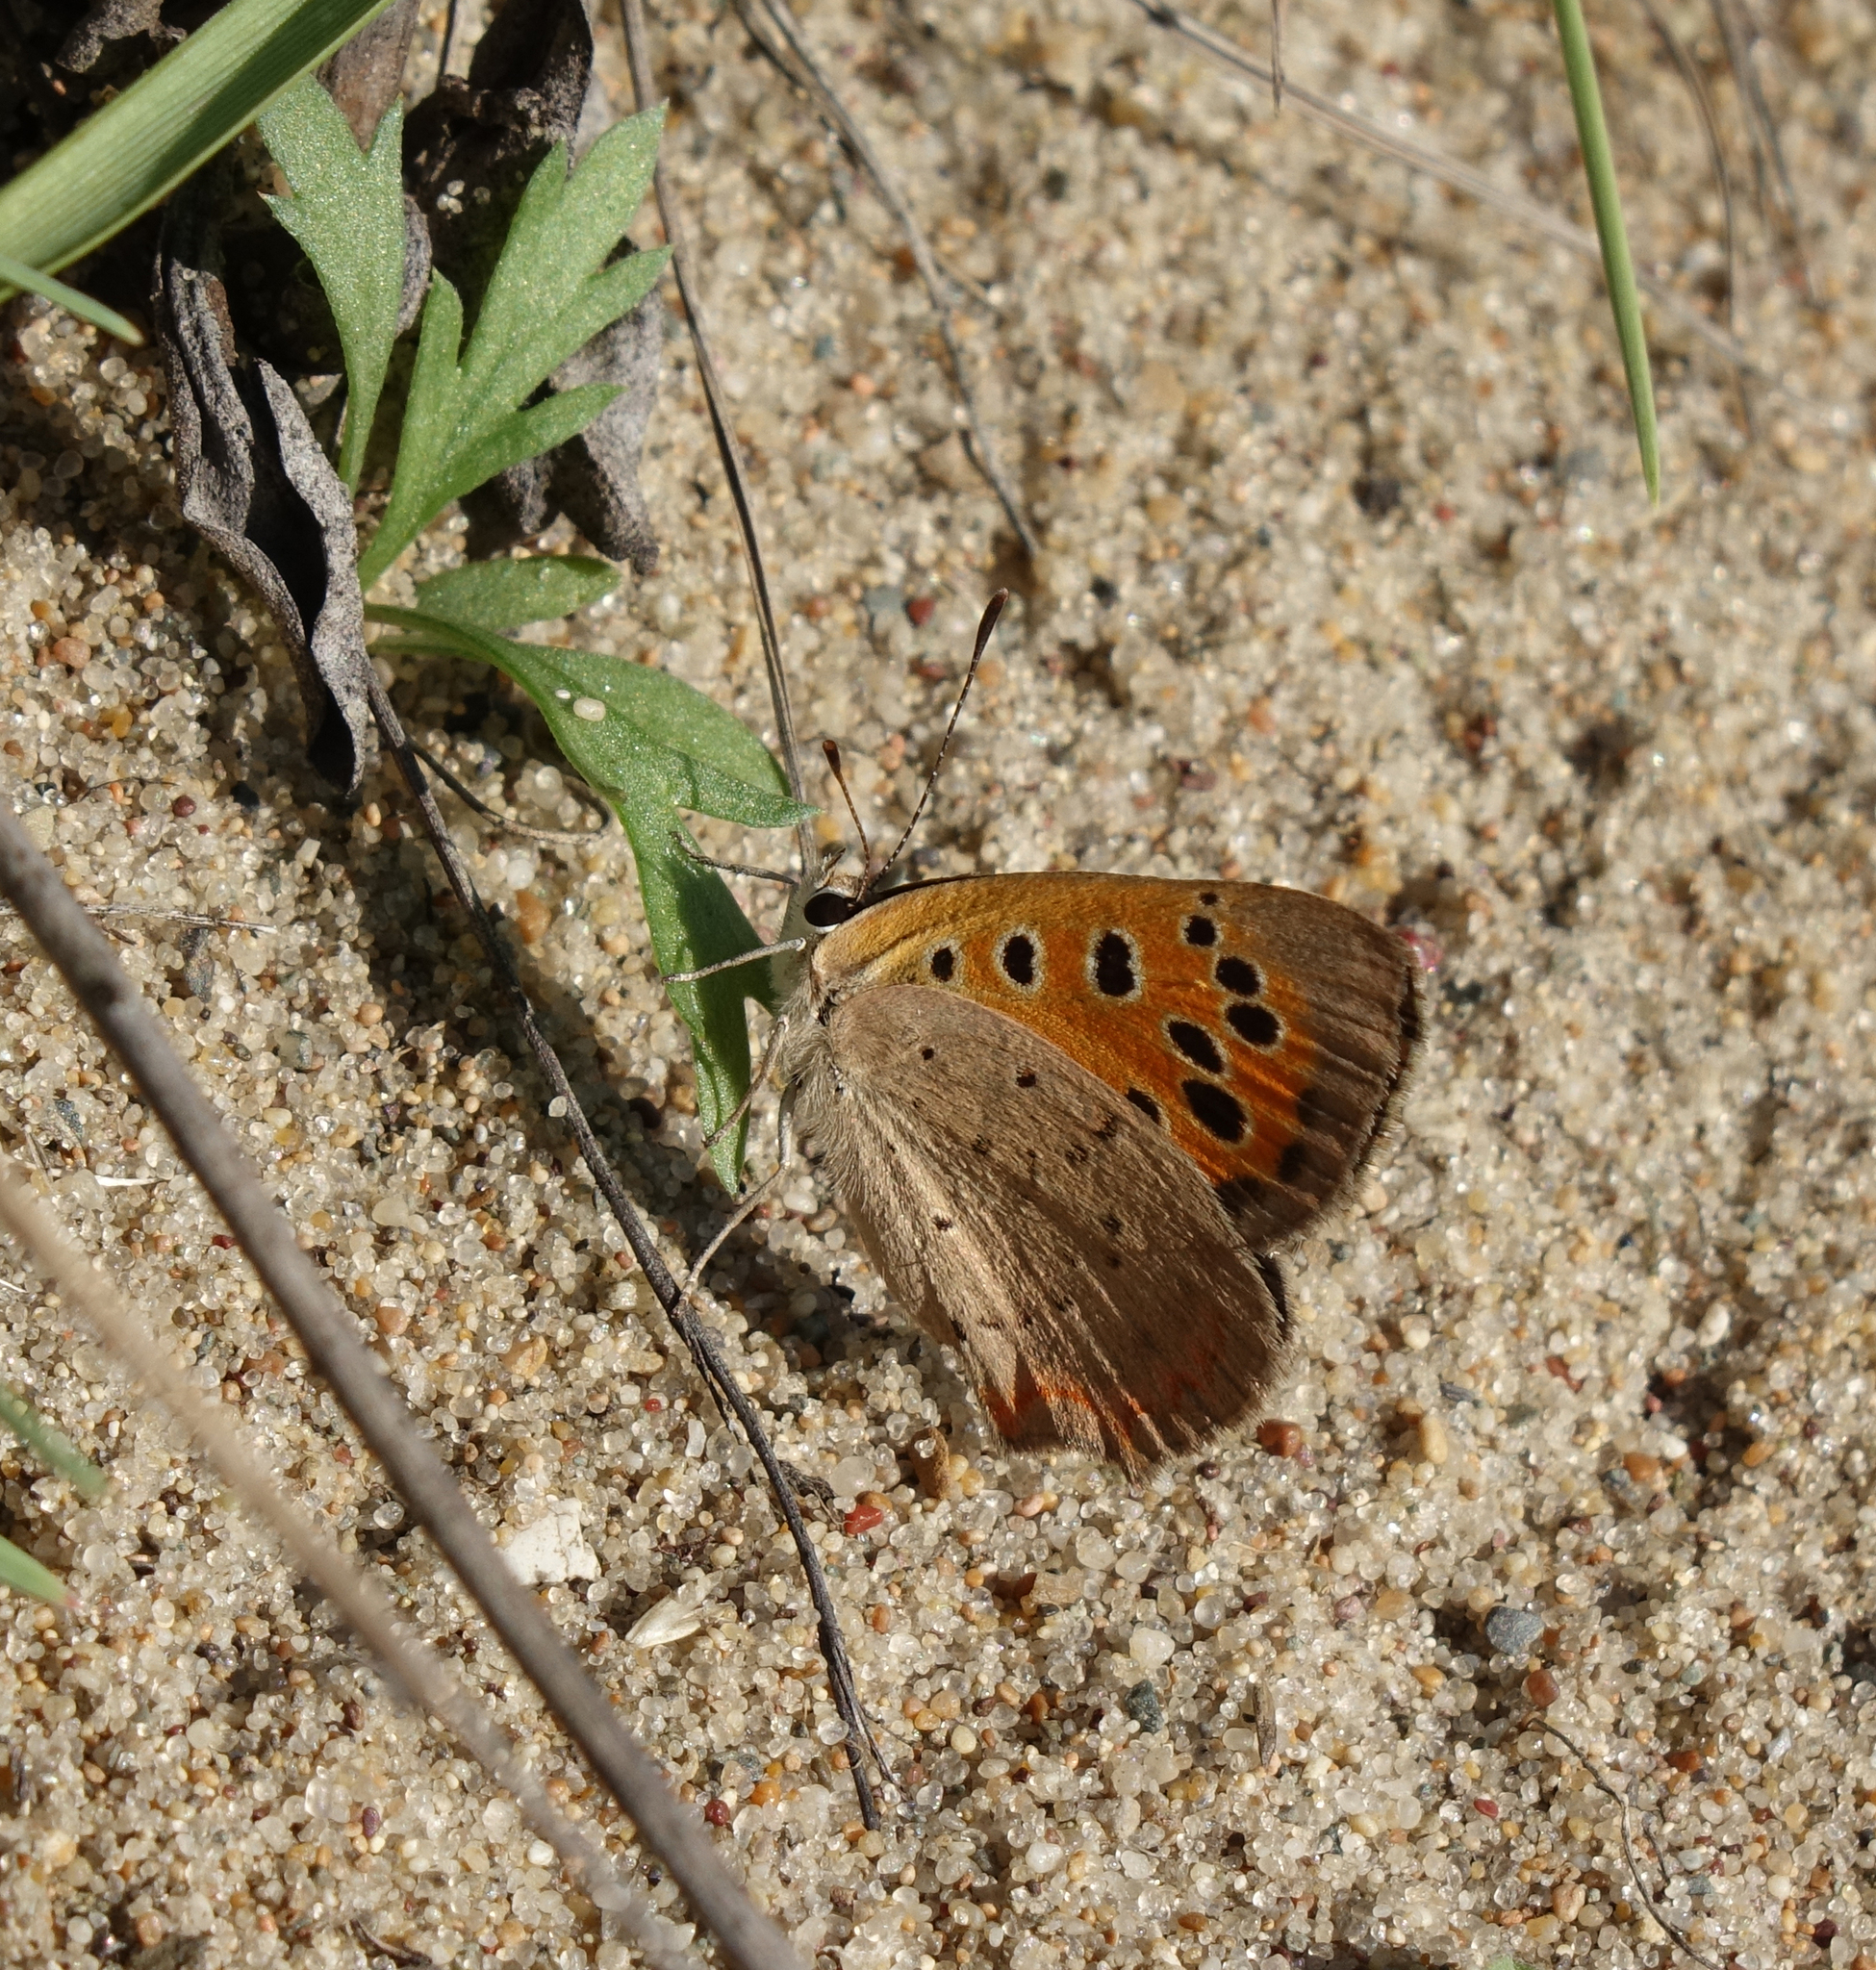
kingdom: Animalia
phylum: Arthropoda
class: Insecta
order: Lepidoptera
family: Lycaenidae
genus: Lycaena
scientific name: Lycaena phlaeas
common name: Small copper
